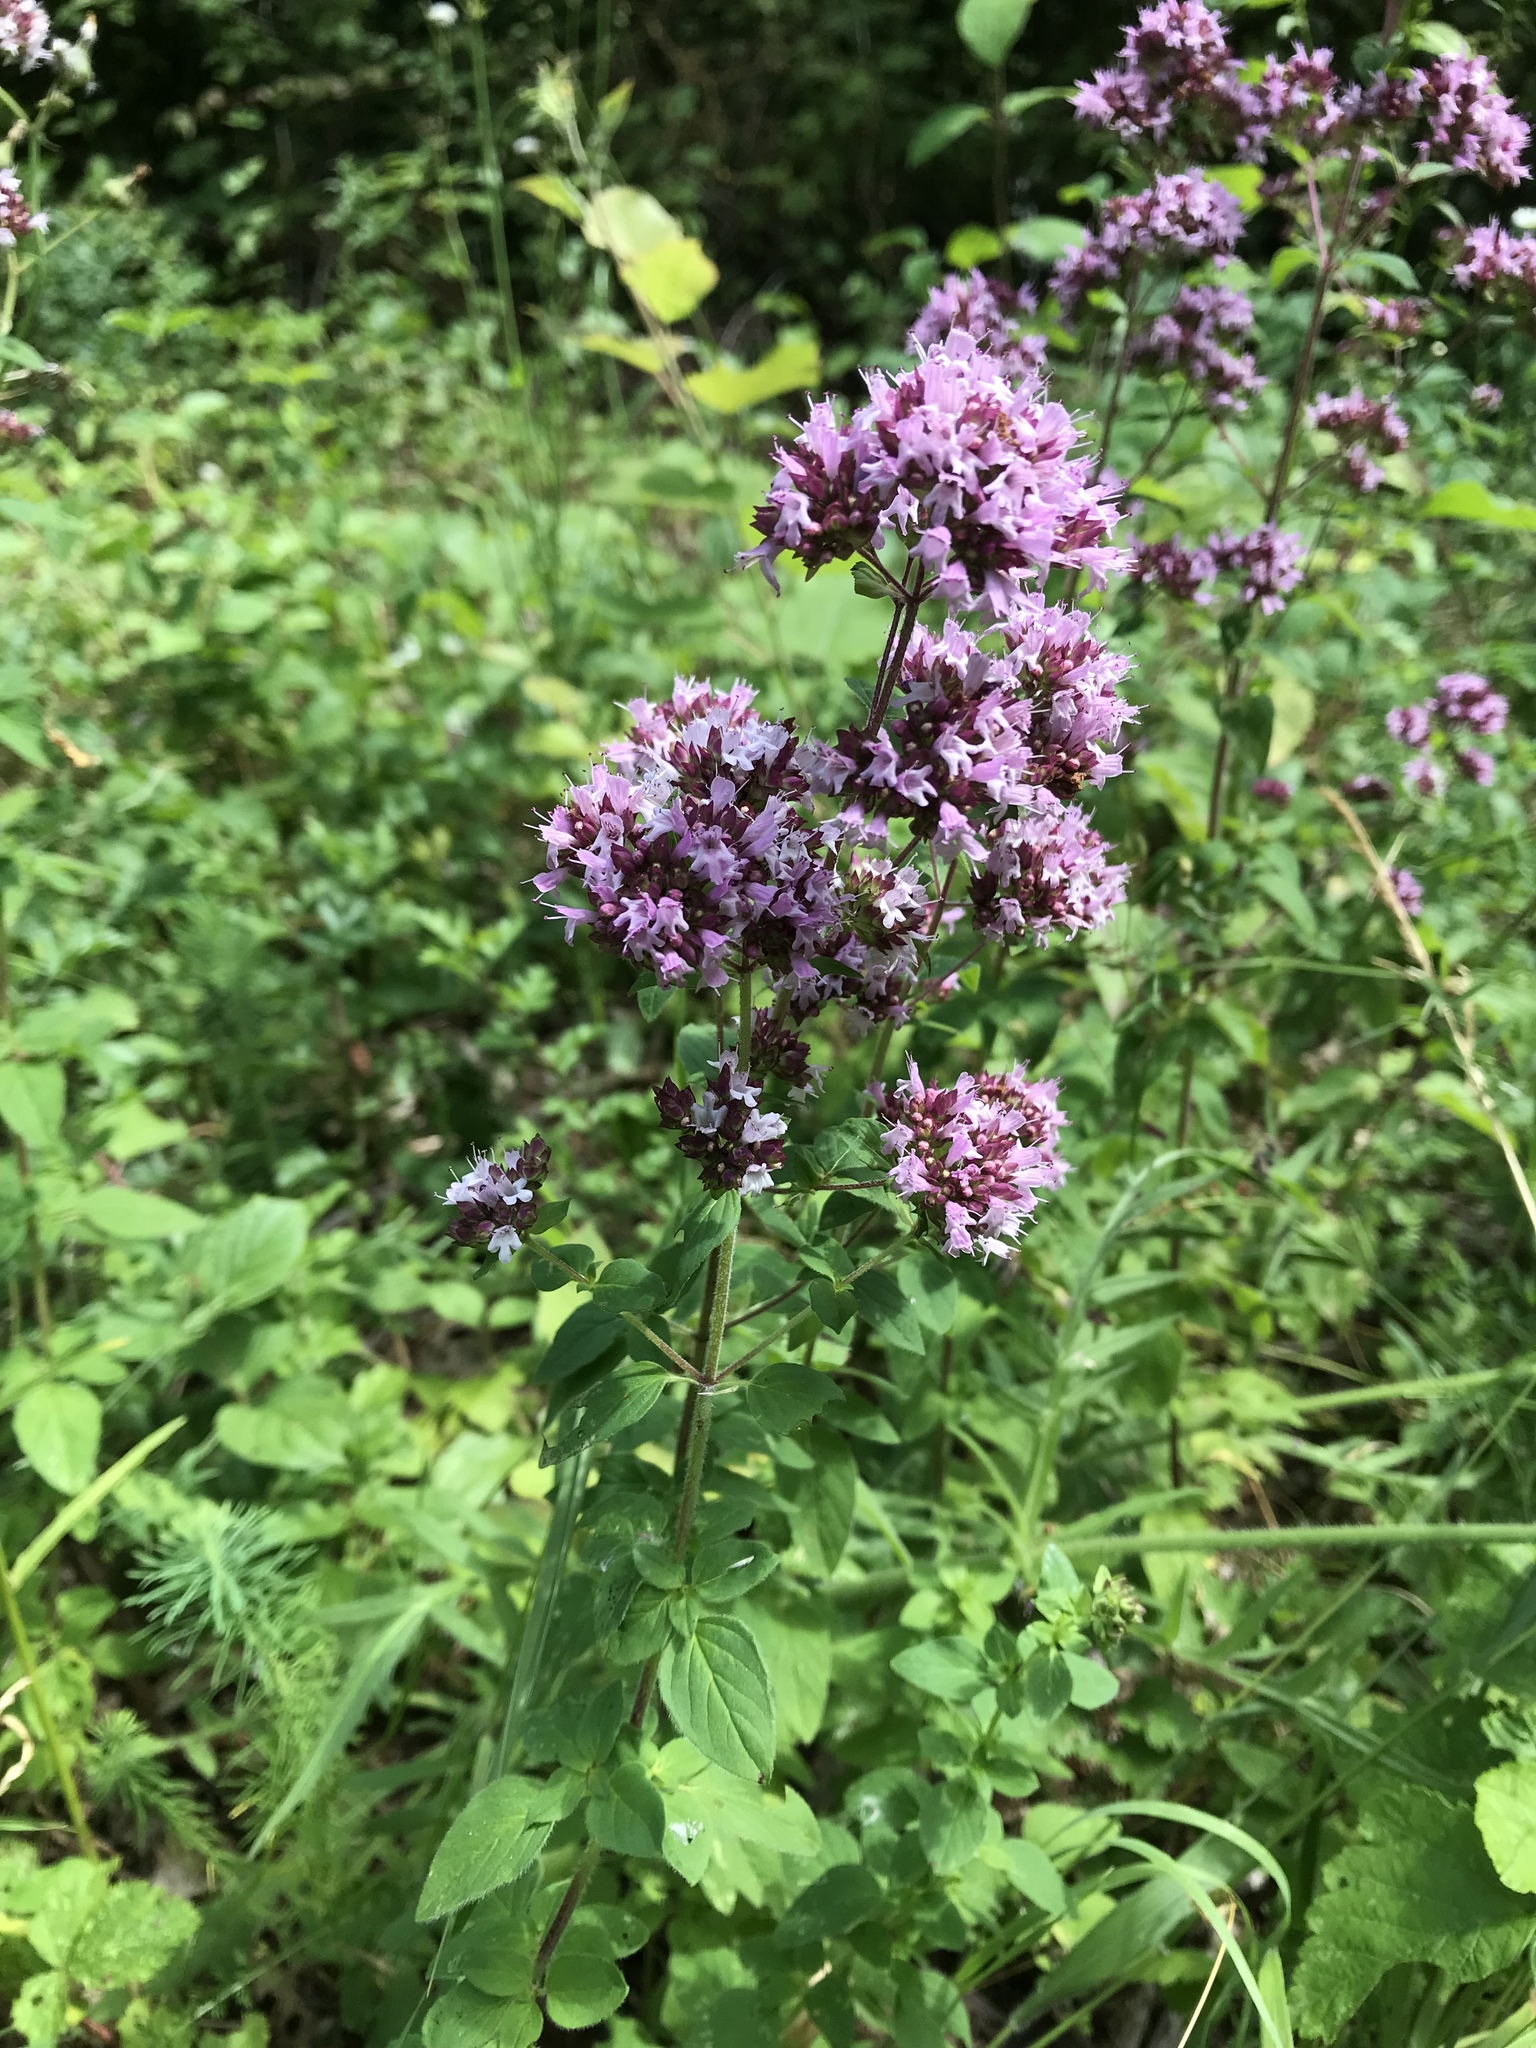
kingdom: Plantae
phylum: Tracheophyta
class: Magnoliopsida
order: Lamiales
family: Lamiaceae
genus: Origanum
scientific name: Origanum vulgare
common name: Wild marjoram
